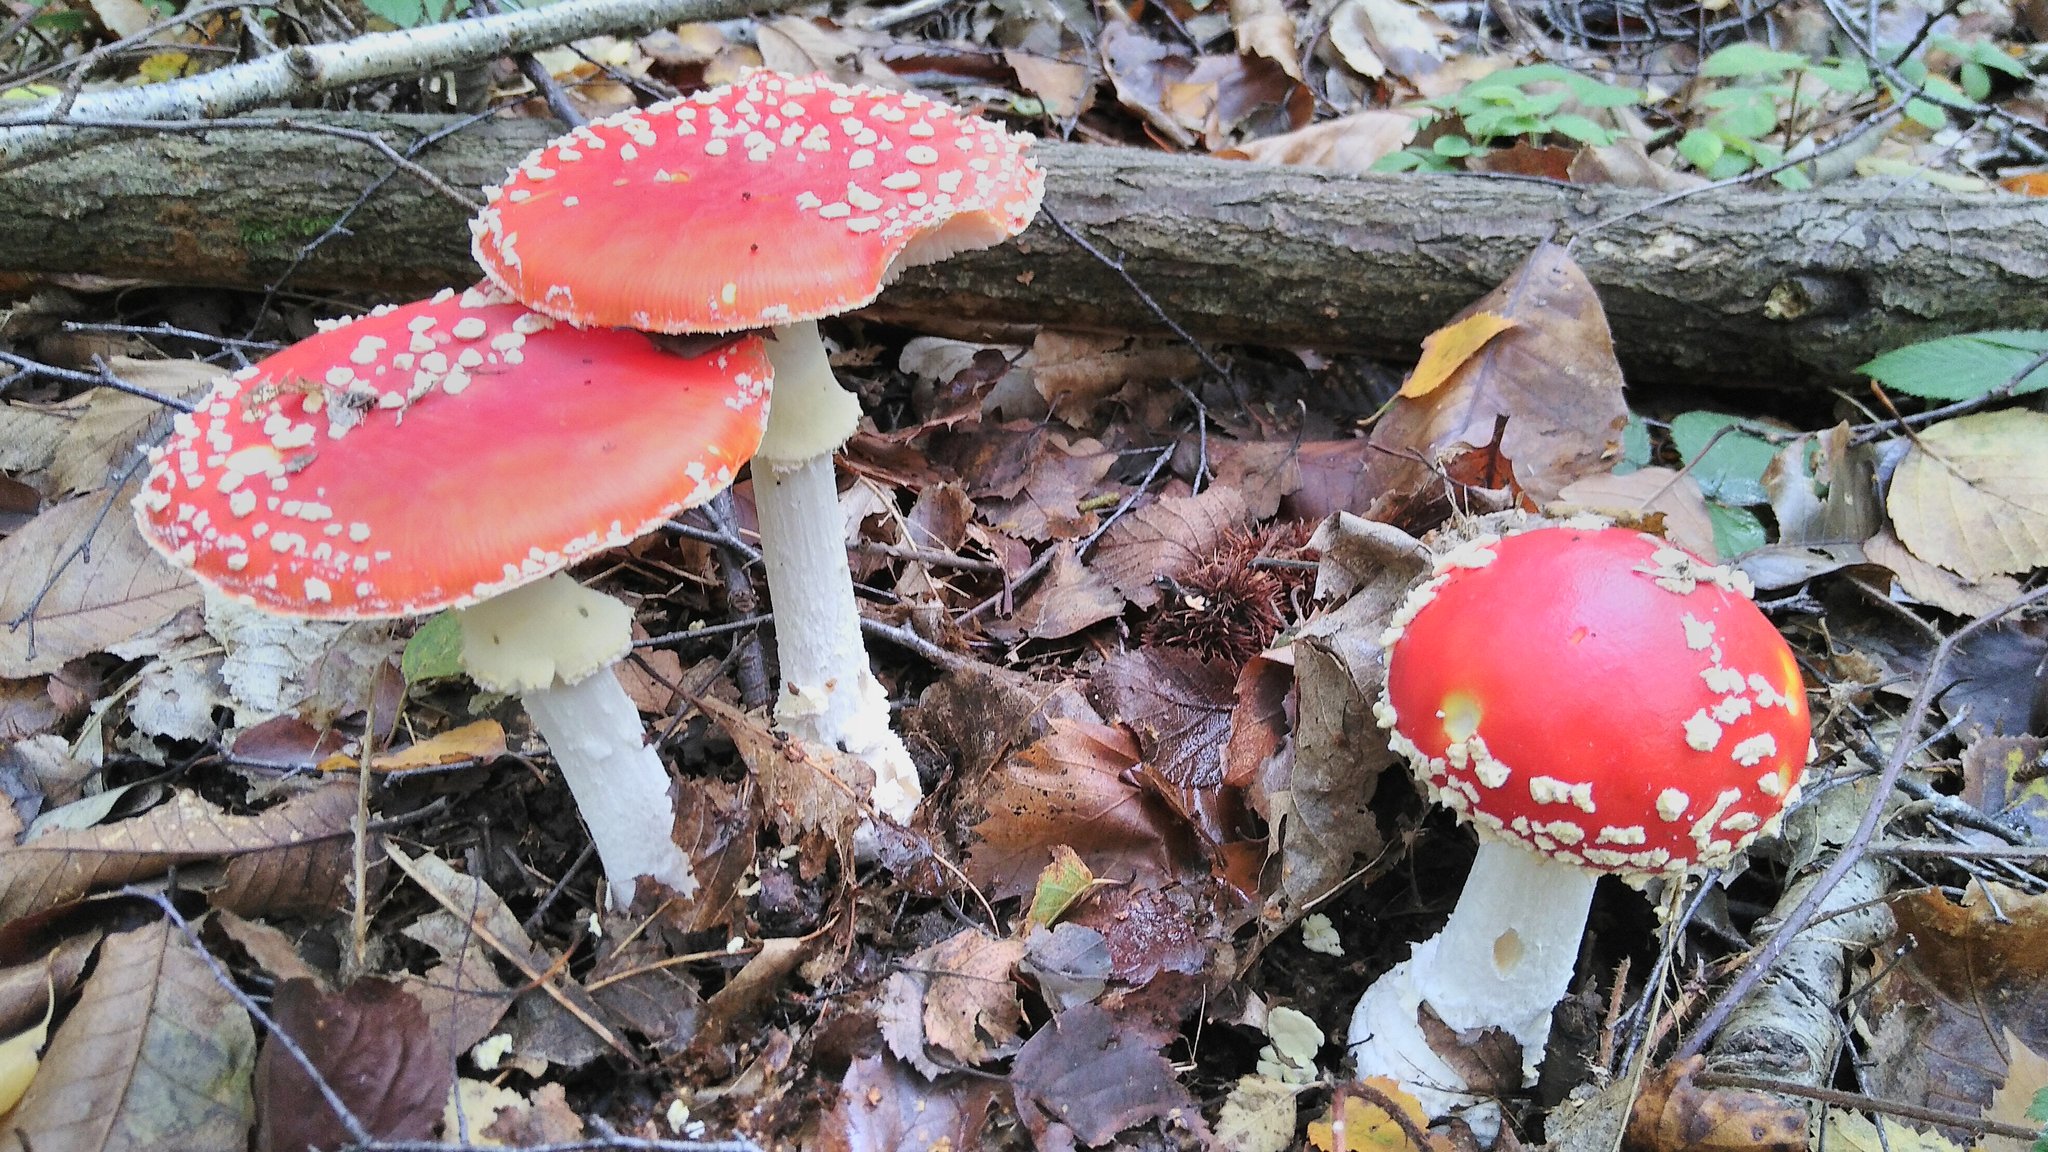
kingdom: Fungi
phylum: Basidiomycota
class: Agaricomycetes
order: Agaricales
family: Amanitaceae
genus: Amanita
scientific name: Amanita muscaria
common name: Fly agaric
